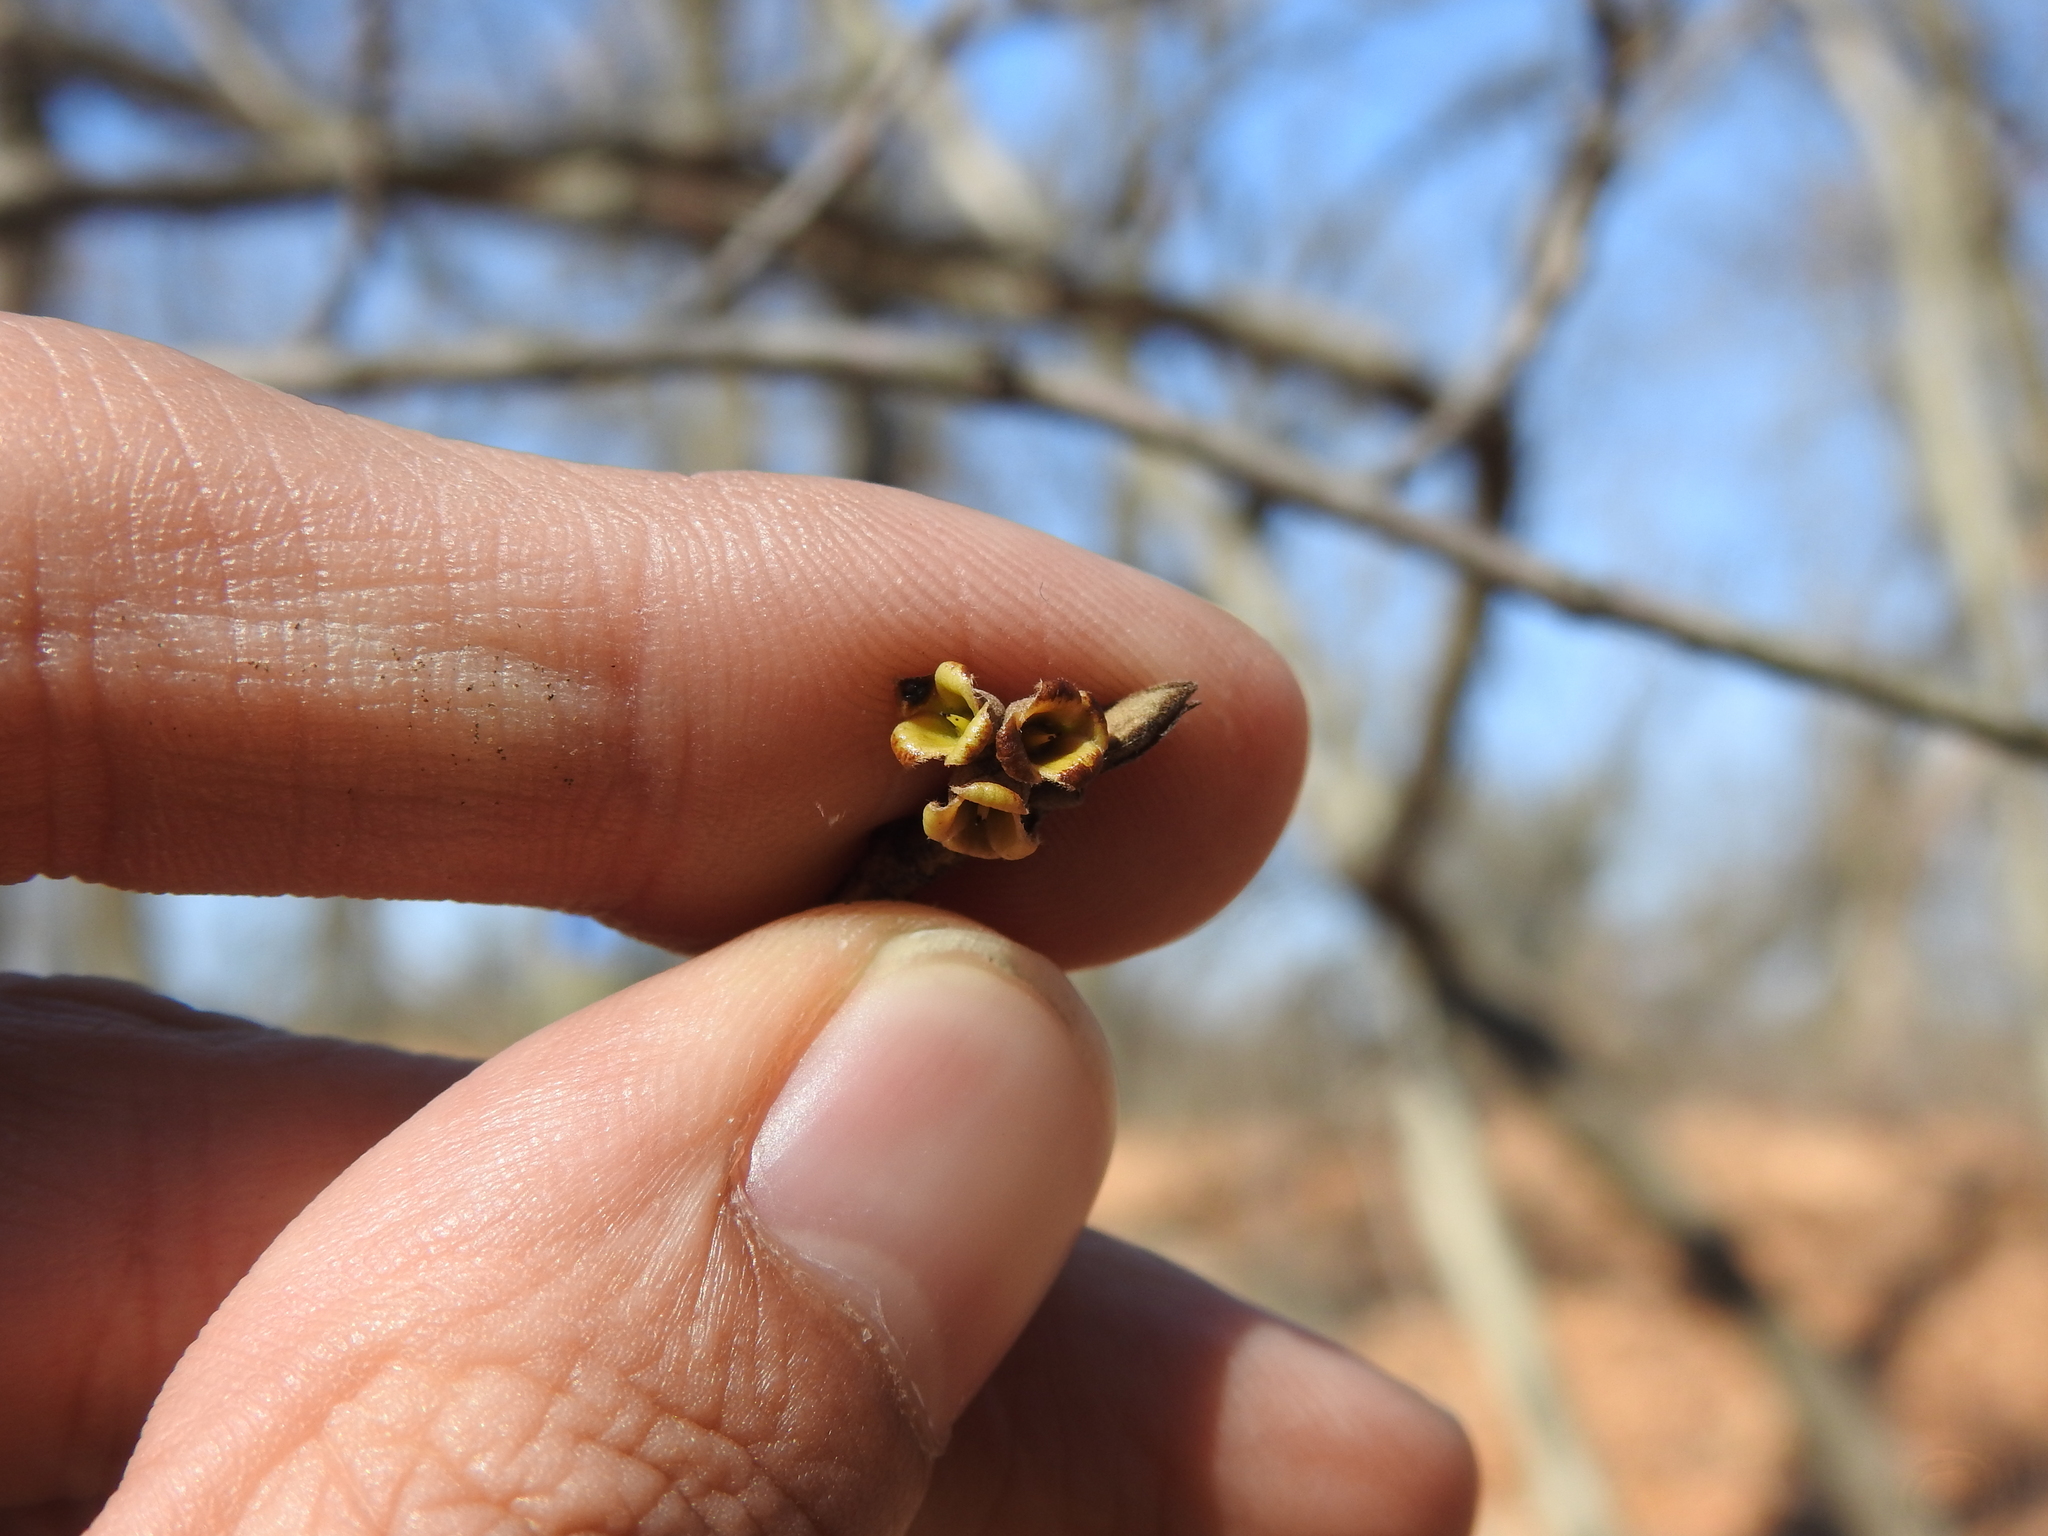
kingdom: Plantae
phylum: Tracheophyta
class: Magnoliopsida
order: Saxifragales
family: Hamamelidaceae
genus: Hamamelis
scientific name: Hamamelis virginiana
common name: Witch-hazel
